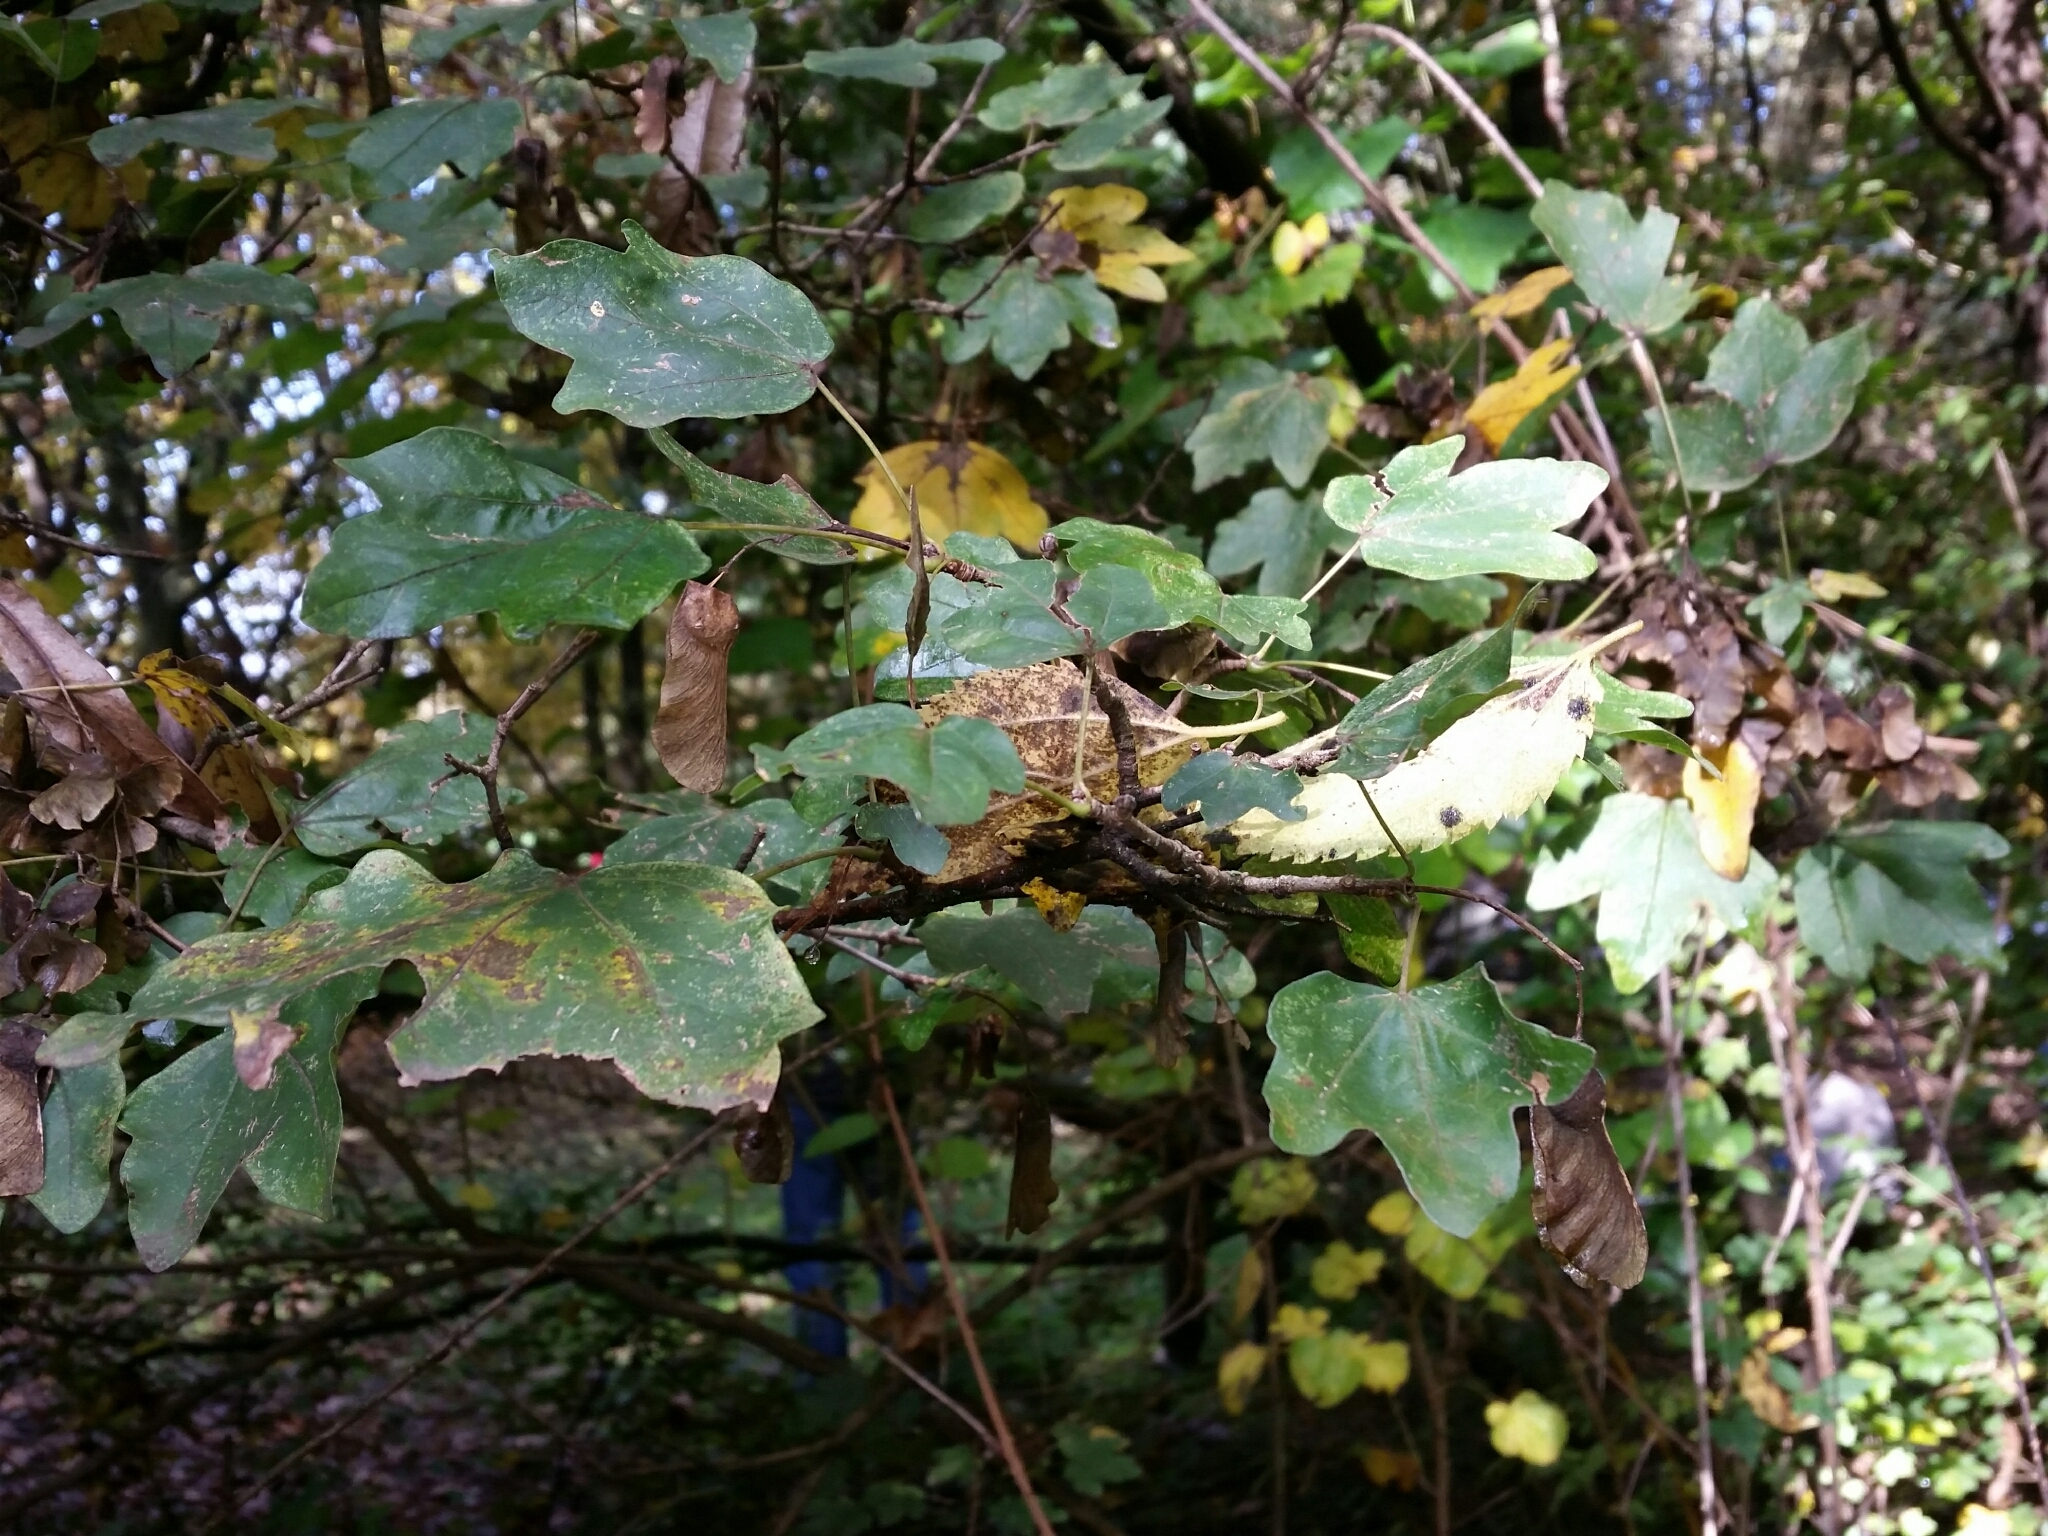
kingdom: Plantae
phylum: Tracheophyta
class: Magnoliopsida
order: Sapindales
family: Sapindaceae
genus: Acer
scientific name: Acer campestre
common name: Field maple
